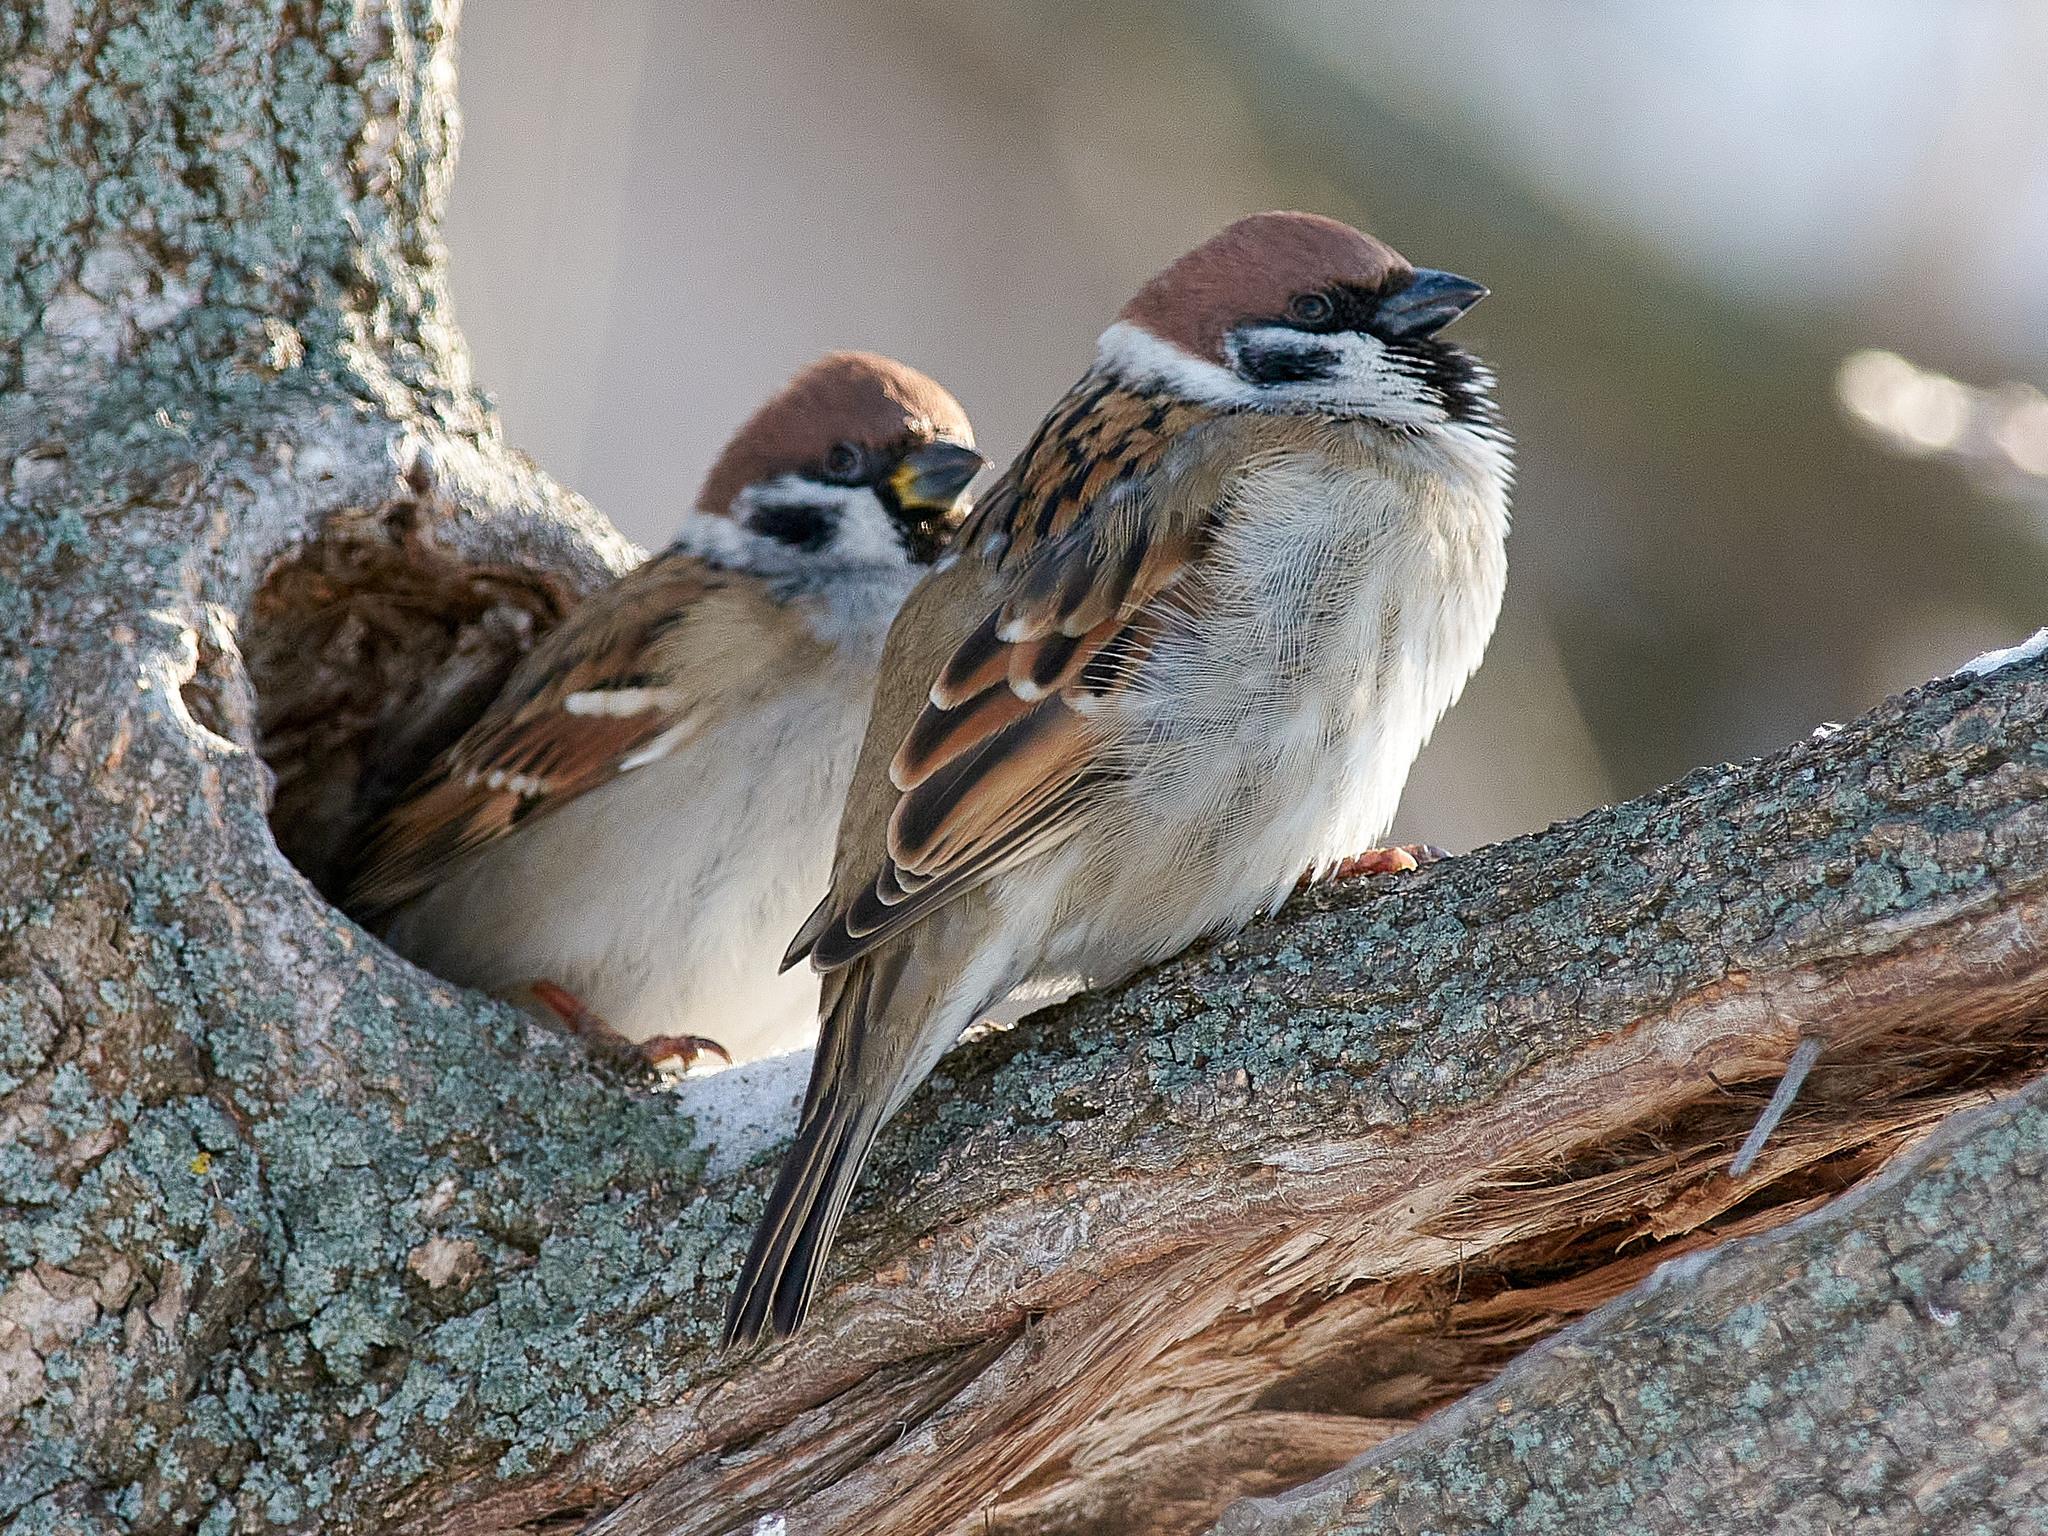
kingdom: Animalia
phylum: Chordata
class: Aves
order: Passeriformes
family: Passeridae
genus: Passer
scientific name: Passer montanus
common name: Eurasian tree sparrow
